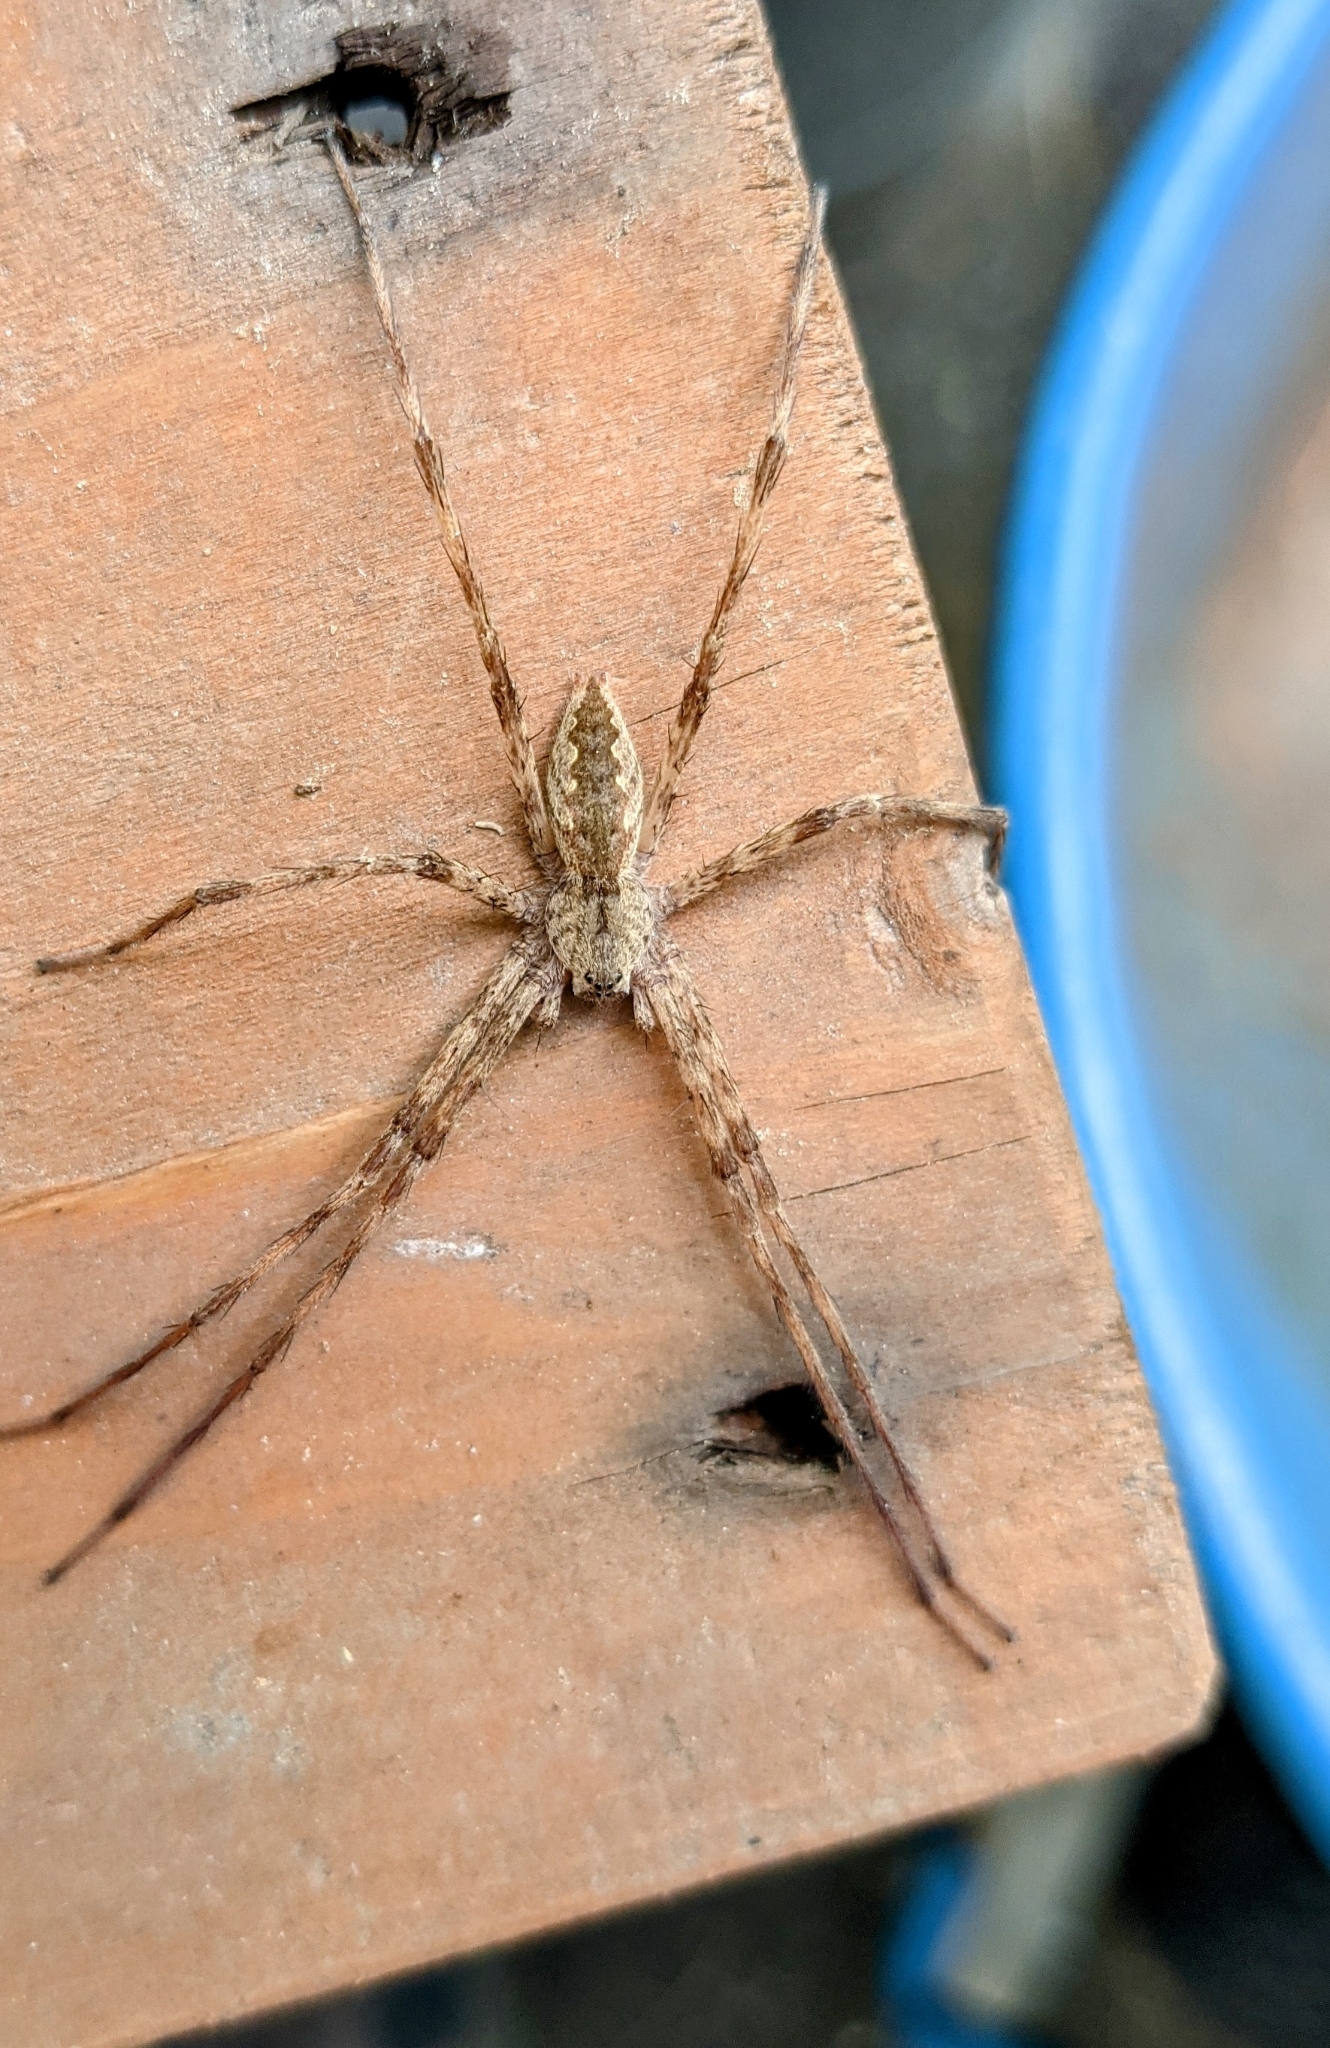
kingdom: Animalia
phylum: Arthropoda
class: Arachnida
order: Araneae
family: Pisauridae
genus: Pisaurina
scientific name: Pisaurina mira
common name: American nursery web spider
